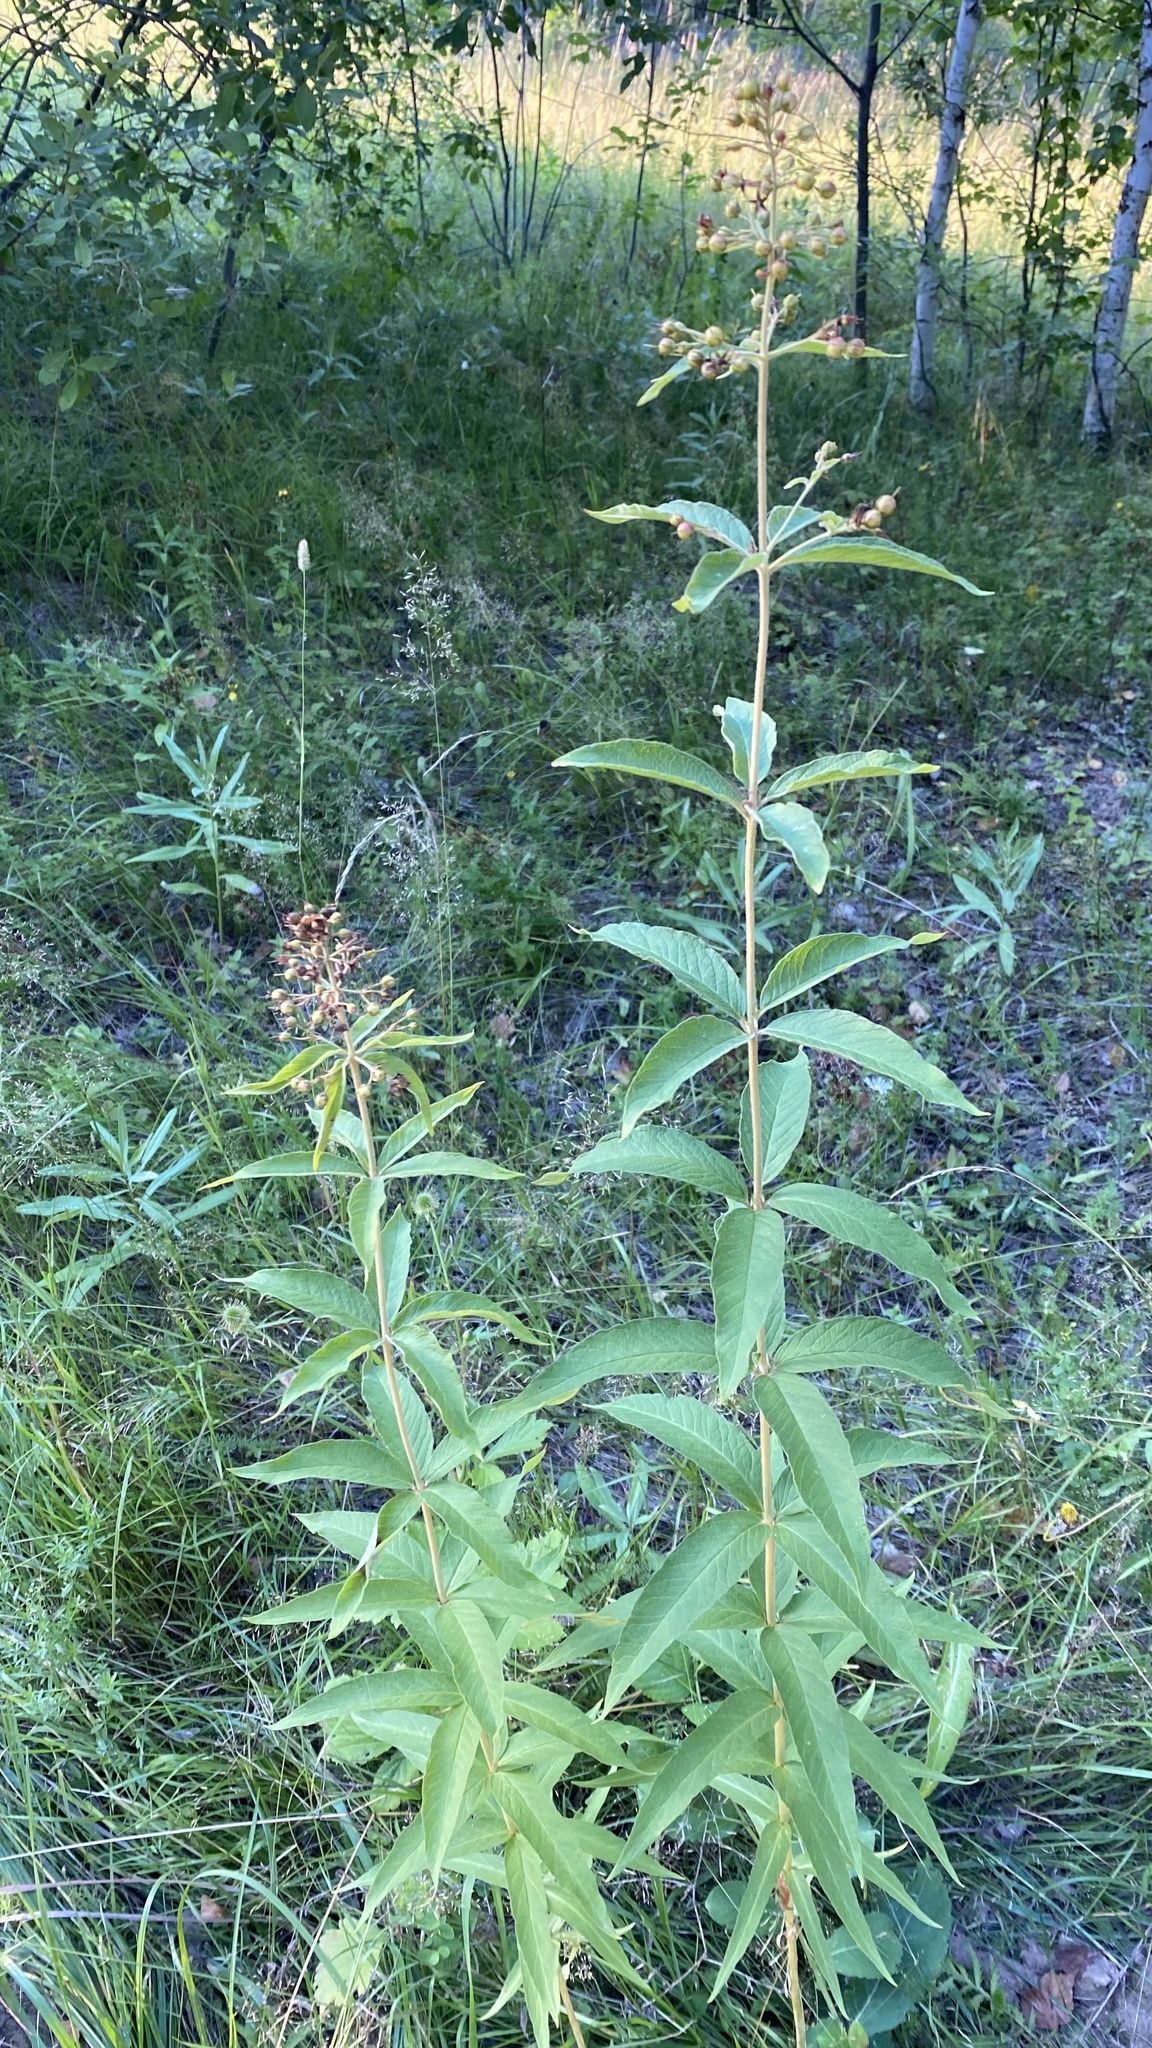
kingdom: Plantae
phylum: Tracheophyta
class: Magnoliopsida
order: Ericales
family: Primulaceae
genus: Lysimachia
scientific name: Lysimachia vulgaris
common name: Yellow loosestrife
